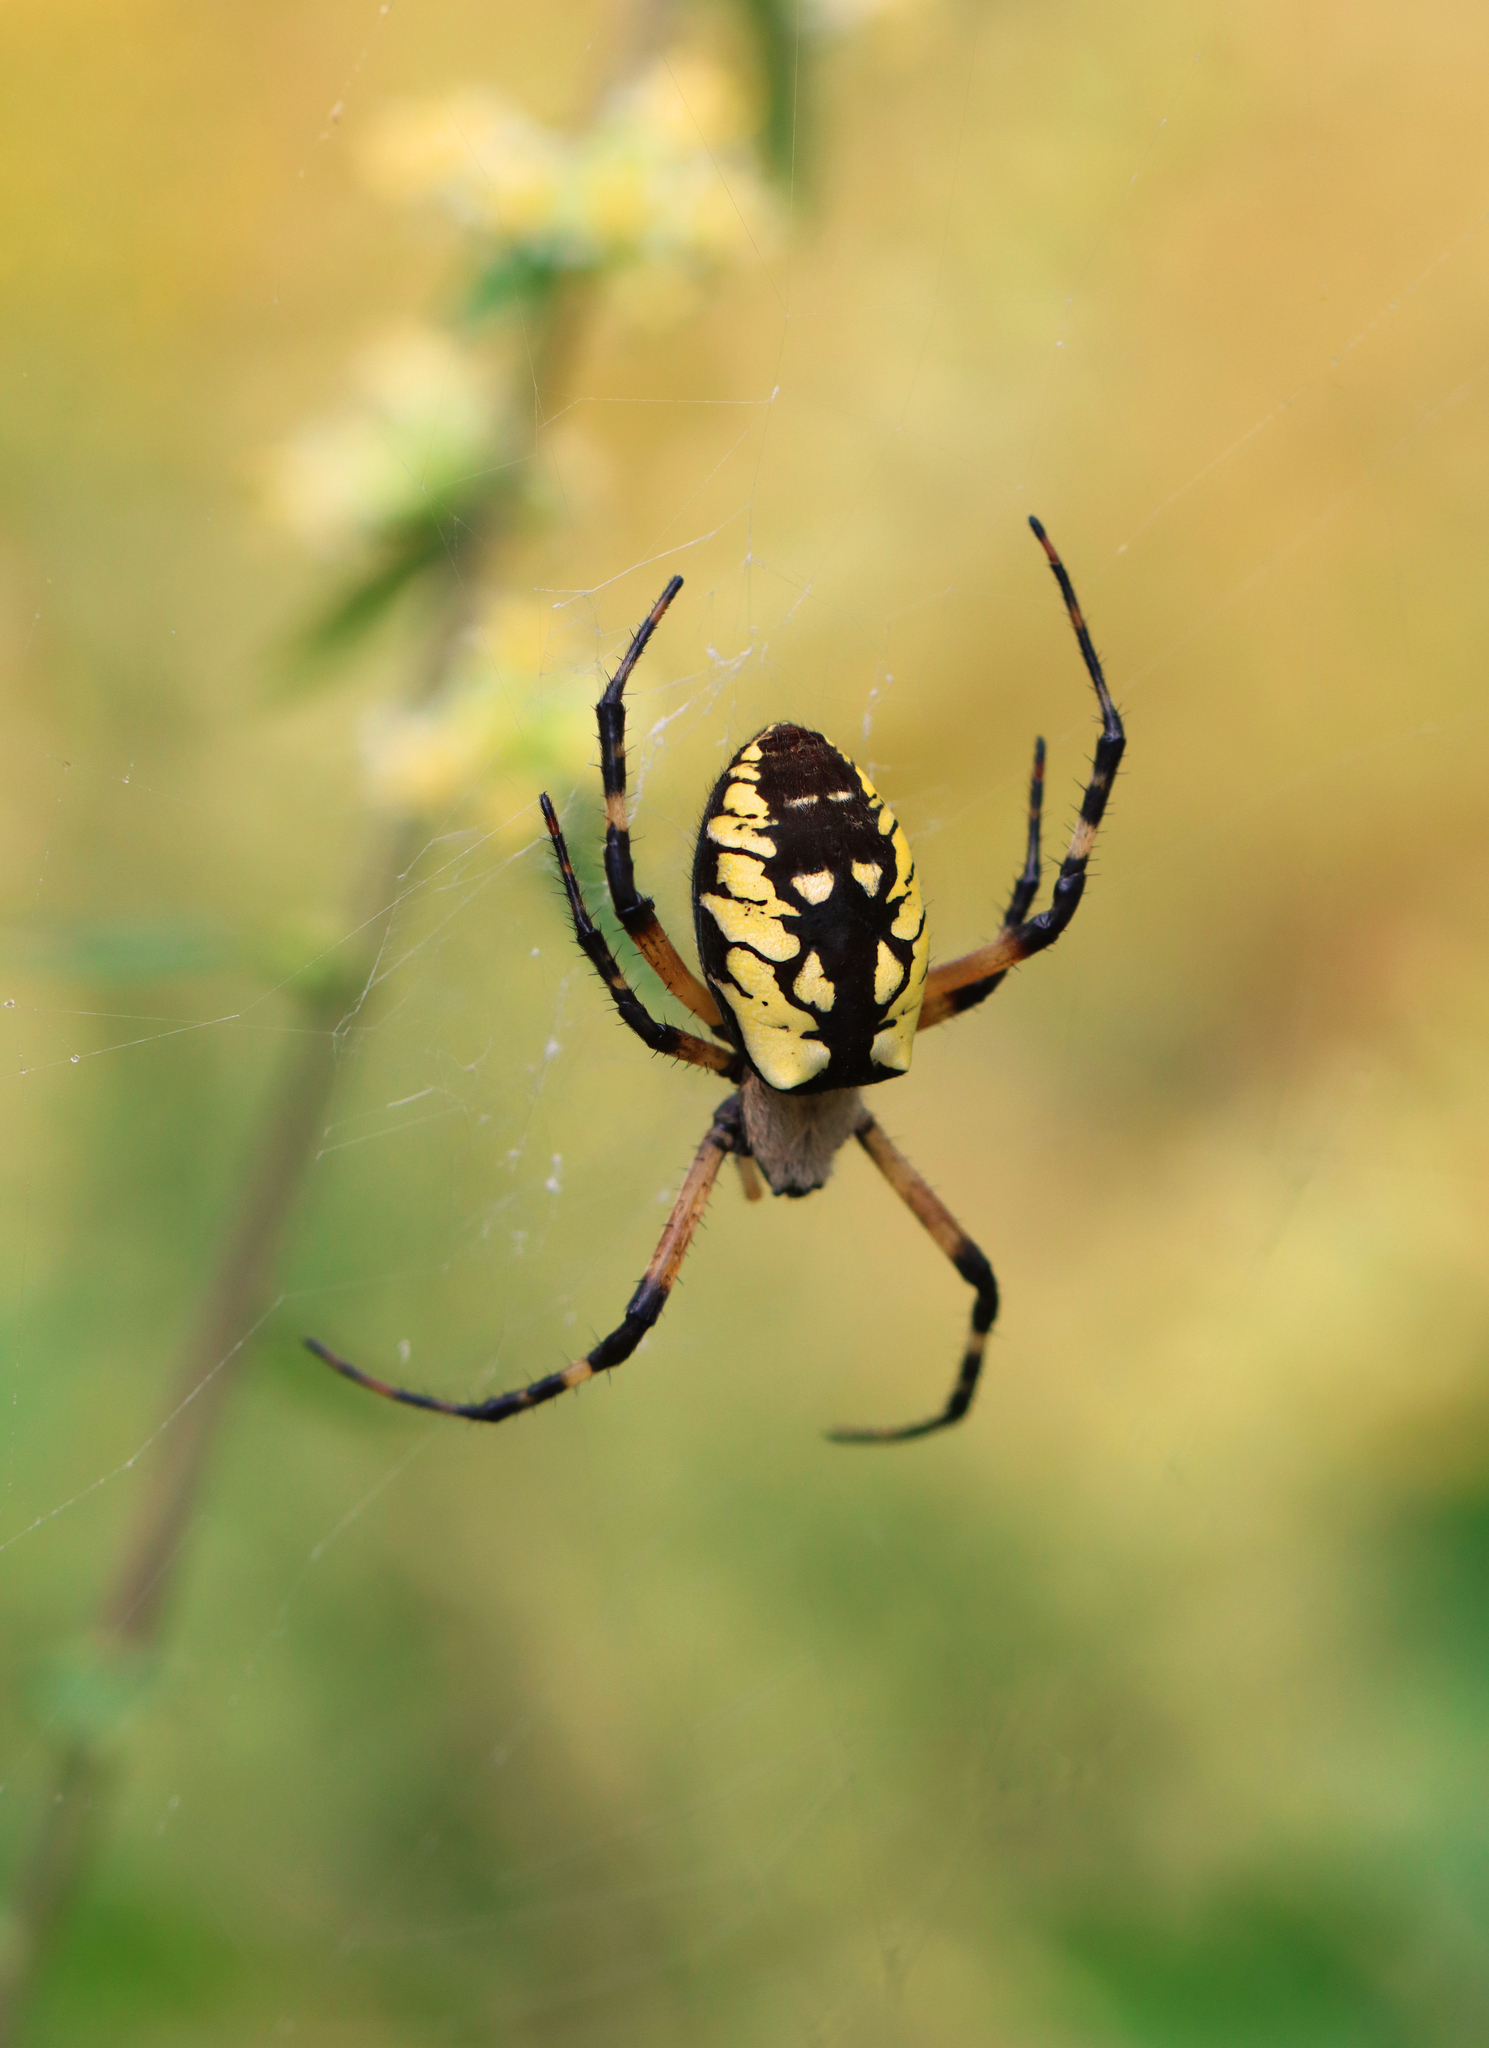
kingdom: Animalia
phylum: Arthropoda
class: Arachnida
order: Araneae
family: Araneidae
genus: Argiope
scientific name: Argiope aurantia
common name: Orb weavers
